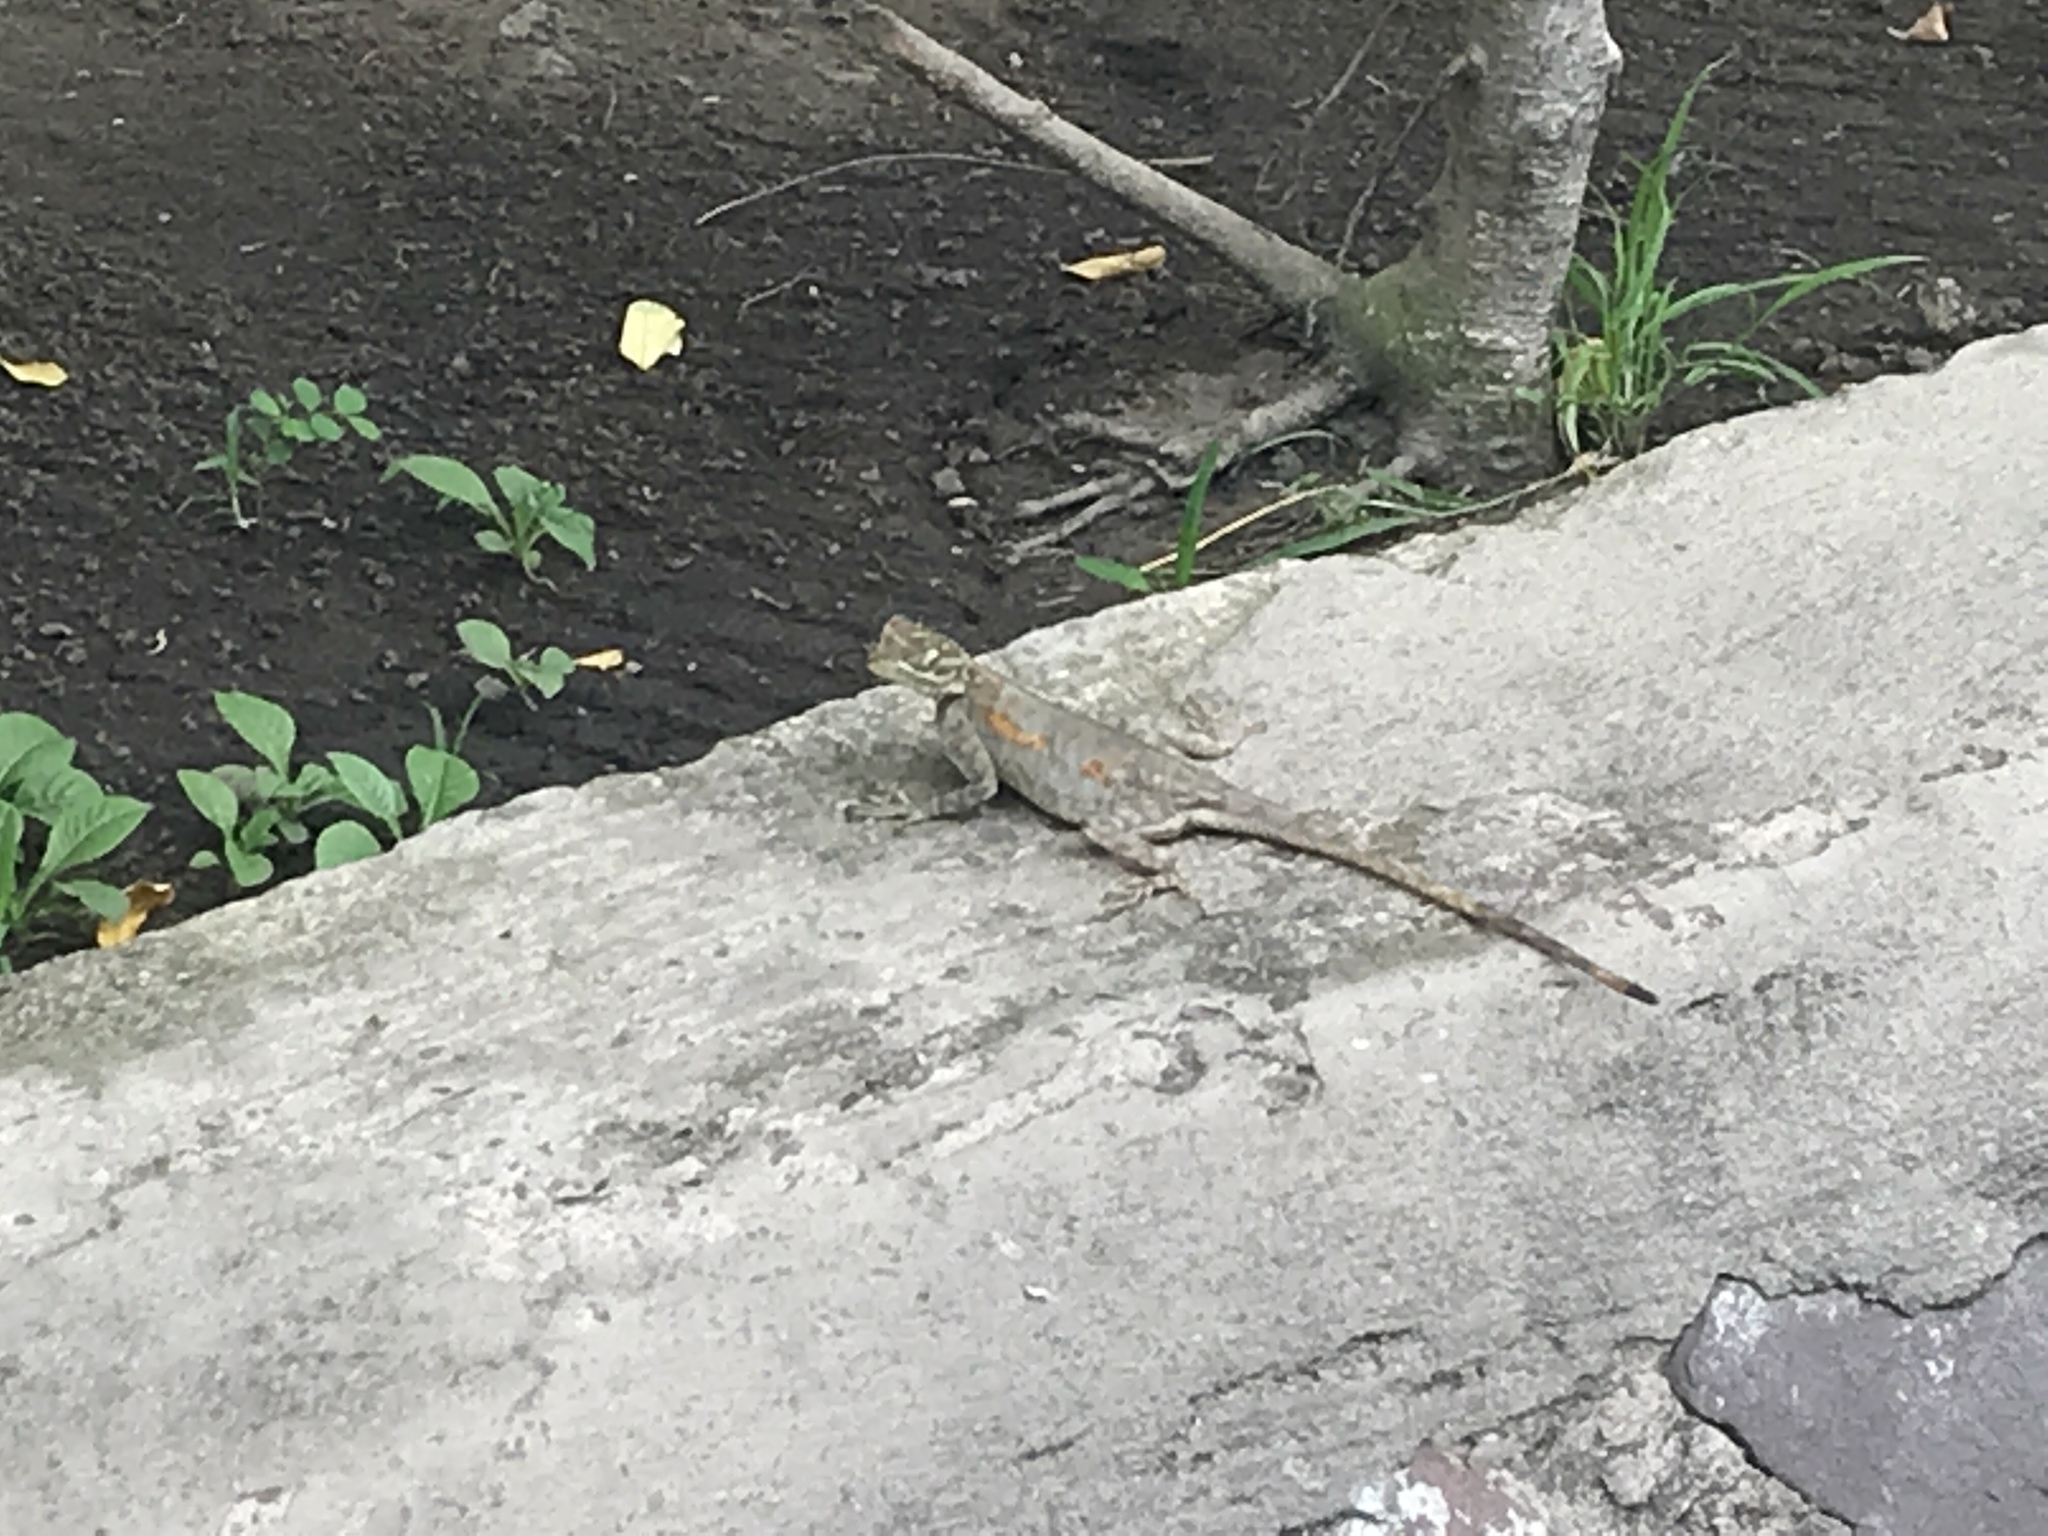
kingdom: Animalia
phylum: Chordata
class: Squamata
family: Agamidae
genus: Agama
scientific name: Agama agama
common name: Common agama
